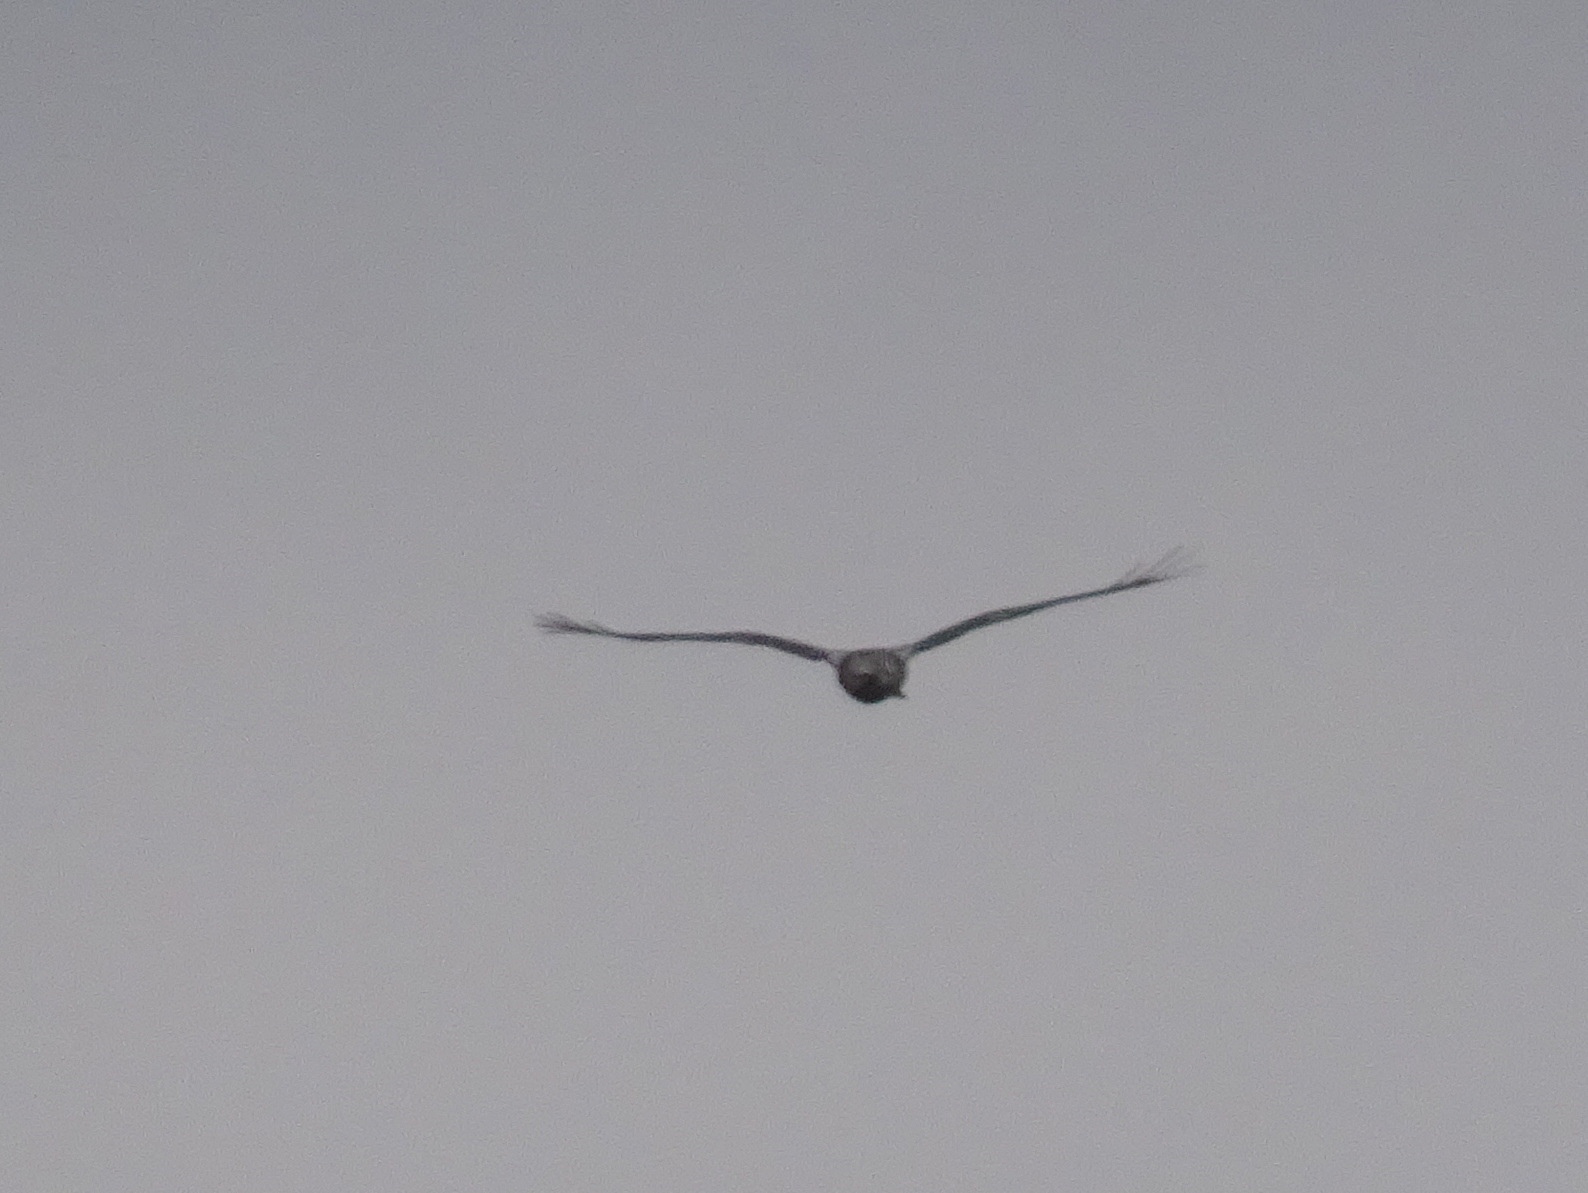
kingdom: Animalia
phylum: Chordata
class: Aves
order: Accipitriformes
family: Accipitridae
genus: Buteo
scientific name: Buteo lagopus
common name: Rough-legged buzzard
